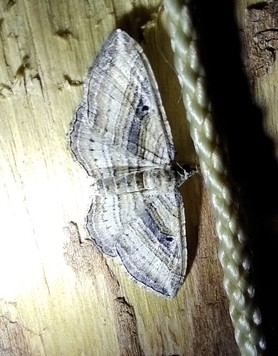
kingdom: Animalia
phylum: Arthropoda
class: Insecta
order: Lepidoptera
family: Geometridae
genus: Costaconvexa
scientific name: Costaconvexa polygrammata
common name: Many-lined
